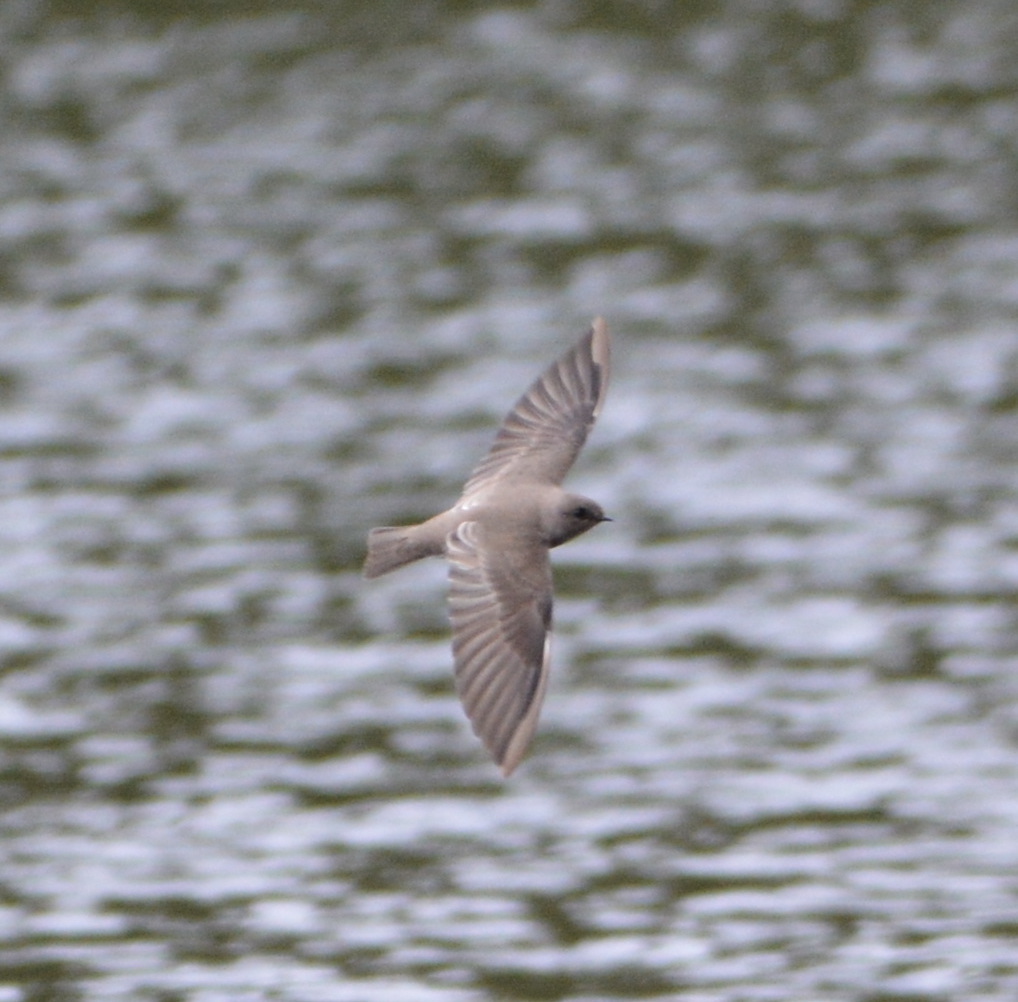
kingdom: Animalia
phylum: Chordata
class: Aves
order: Passeriformes
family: Hirundinidae
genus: Stelgidopteryx
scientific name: Stelgidopteryx serripennis
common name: Northern rough-winged swallow
